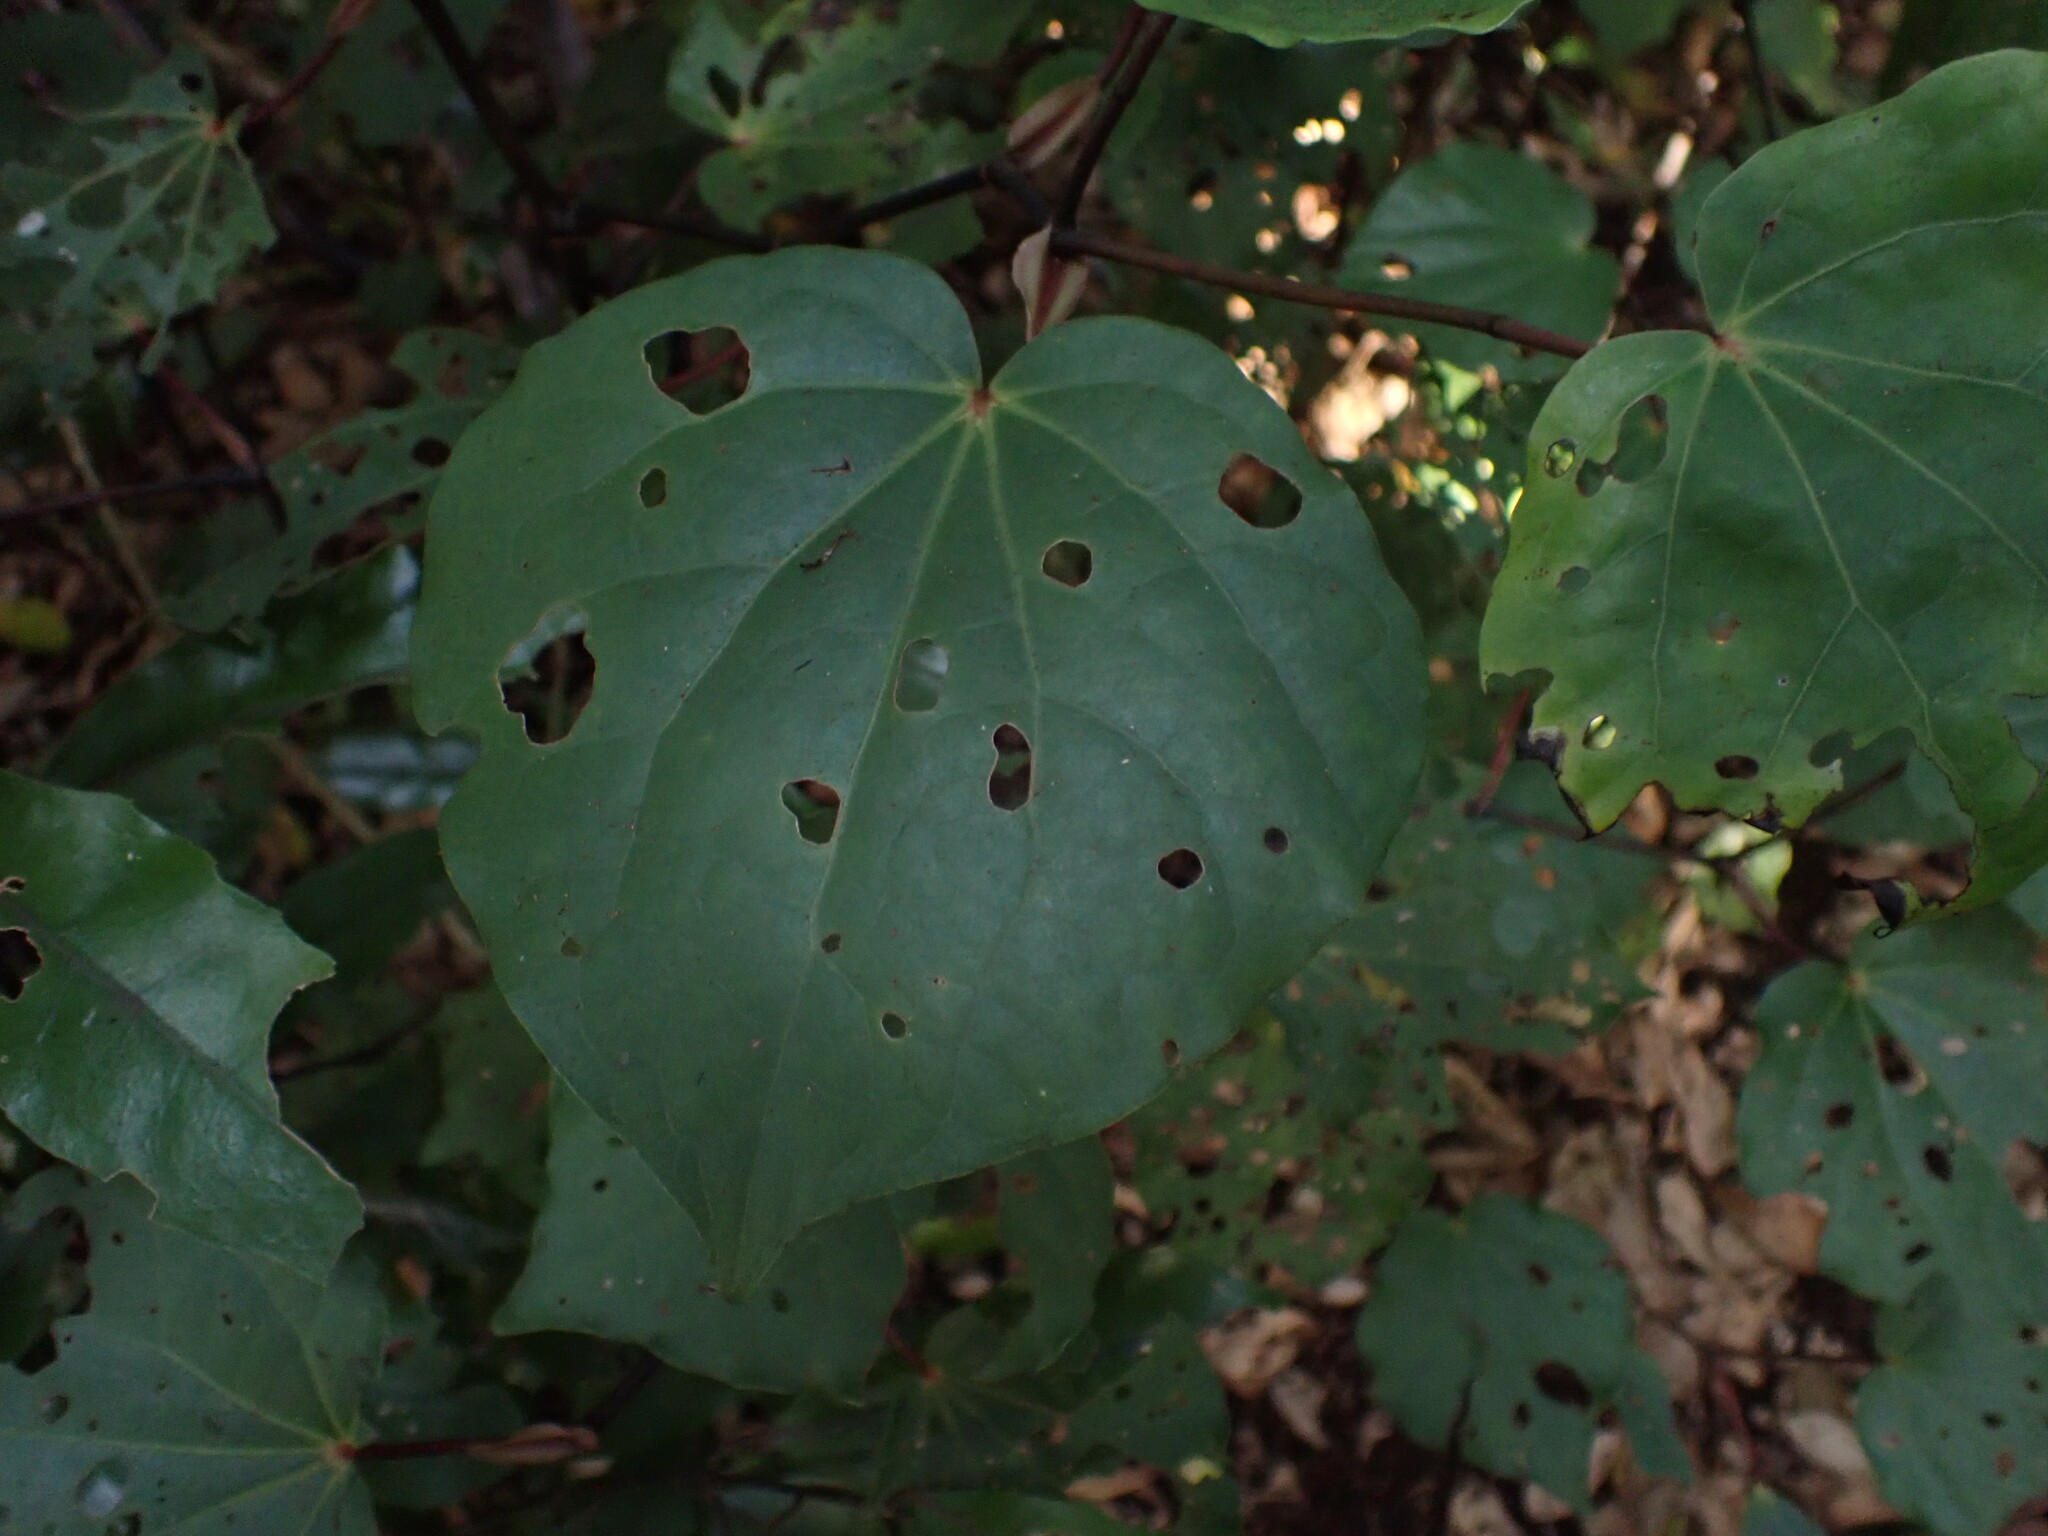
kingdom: Plantae
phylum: Tracheophyta
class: Magnoliopsida
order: Piperales
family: Piperaceae
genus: Macropiper
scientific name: Macropiper excelsum
